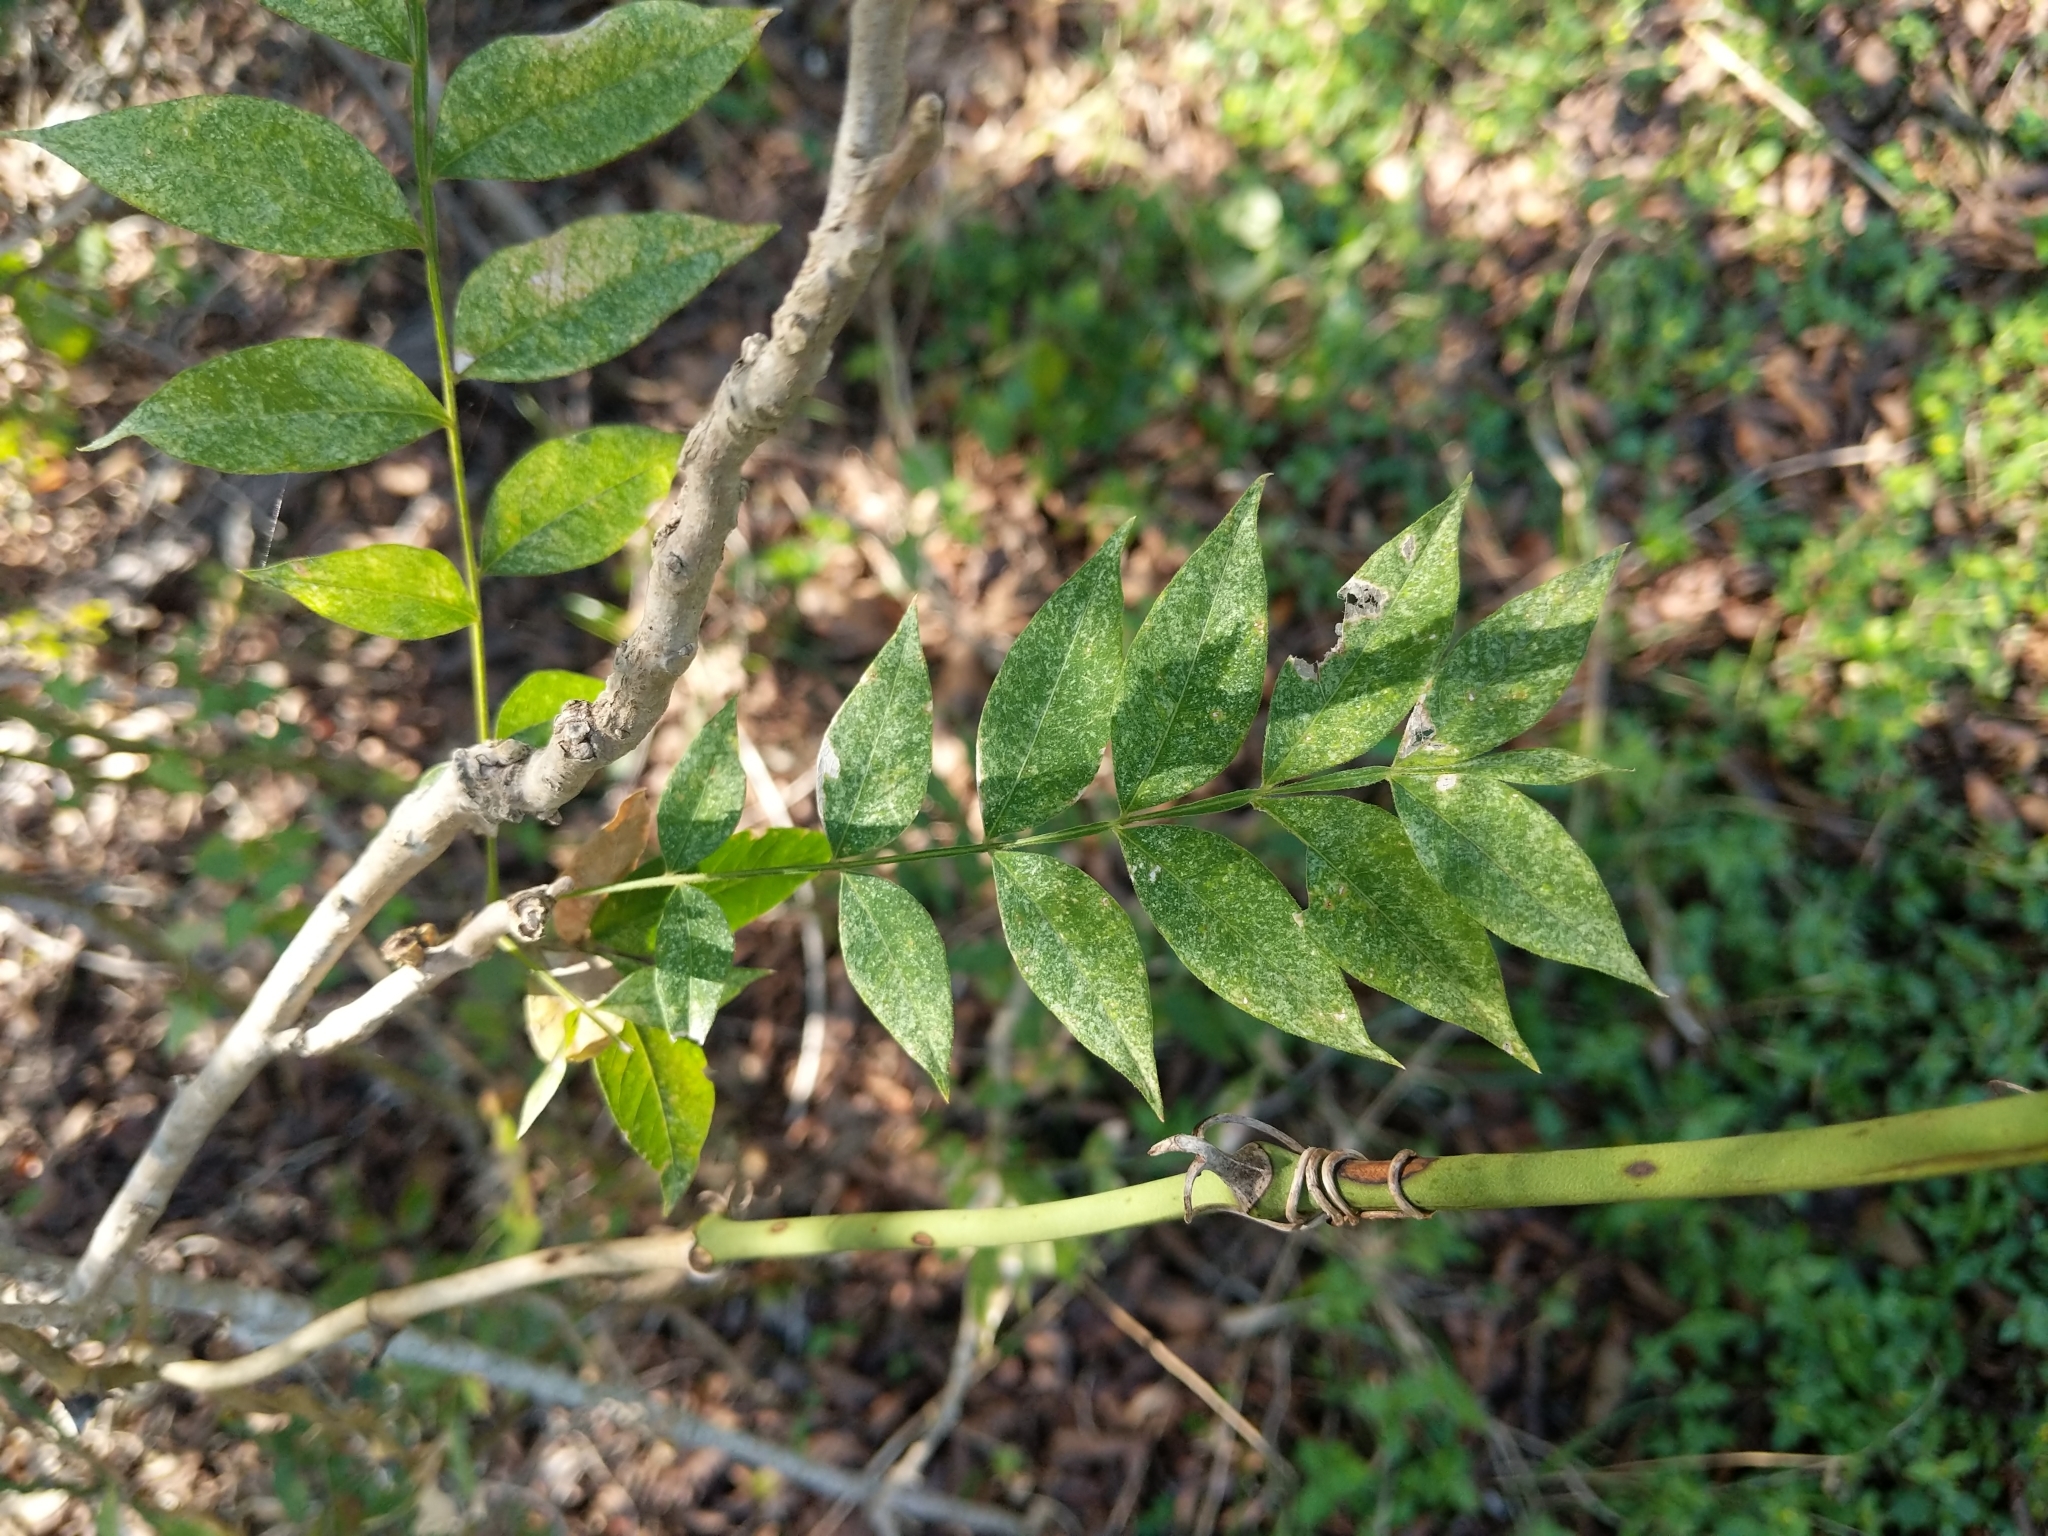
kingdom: Plantae
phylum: Tracheophyta
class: Magnoliopsida
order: Sapindales
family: Anacardiaceae
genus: Pistacia
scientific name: Pistacia chinensis
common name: Chinese pistache
